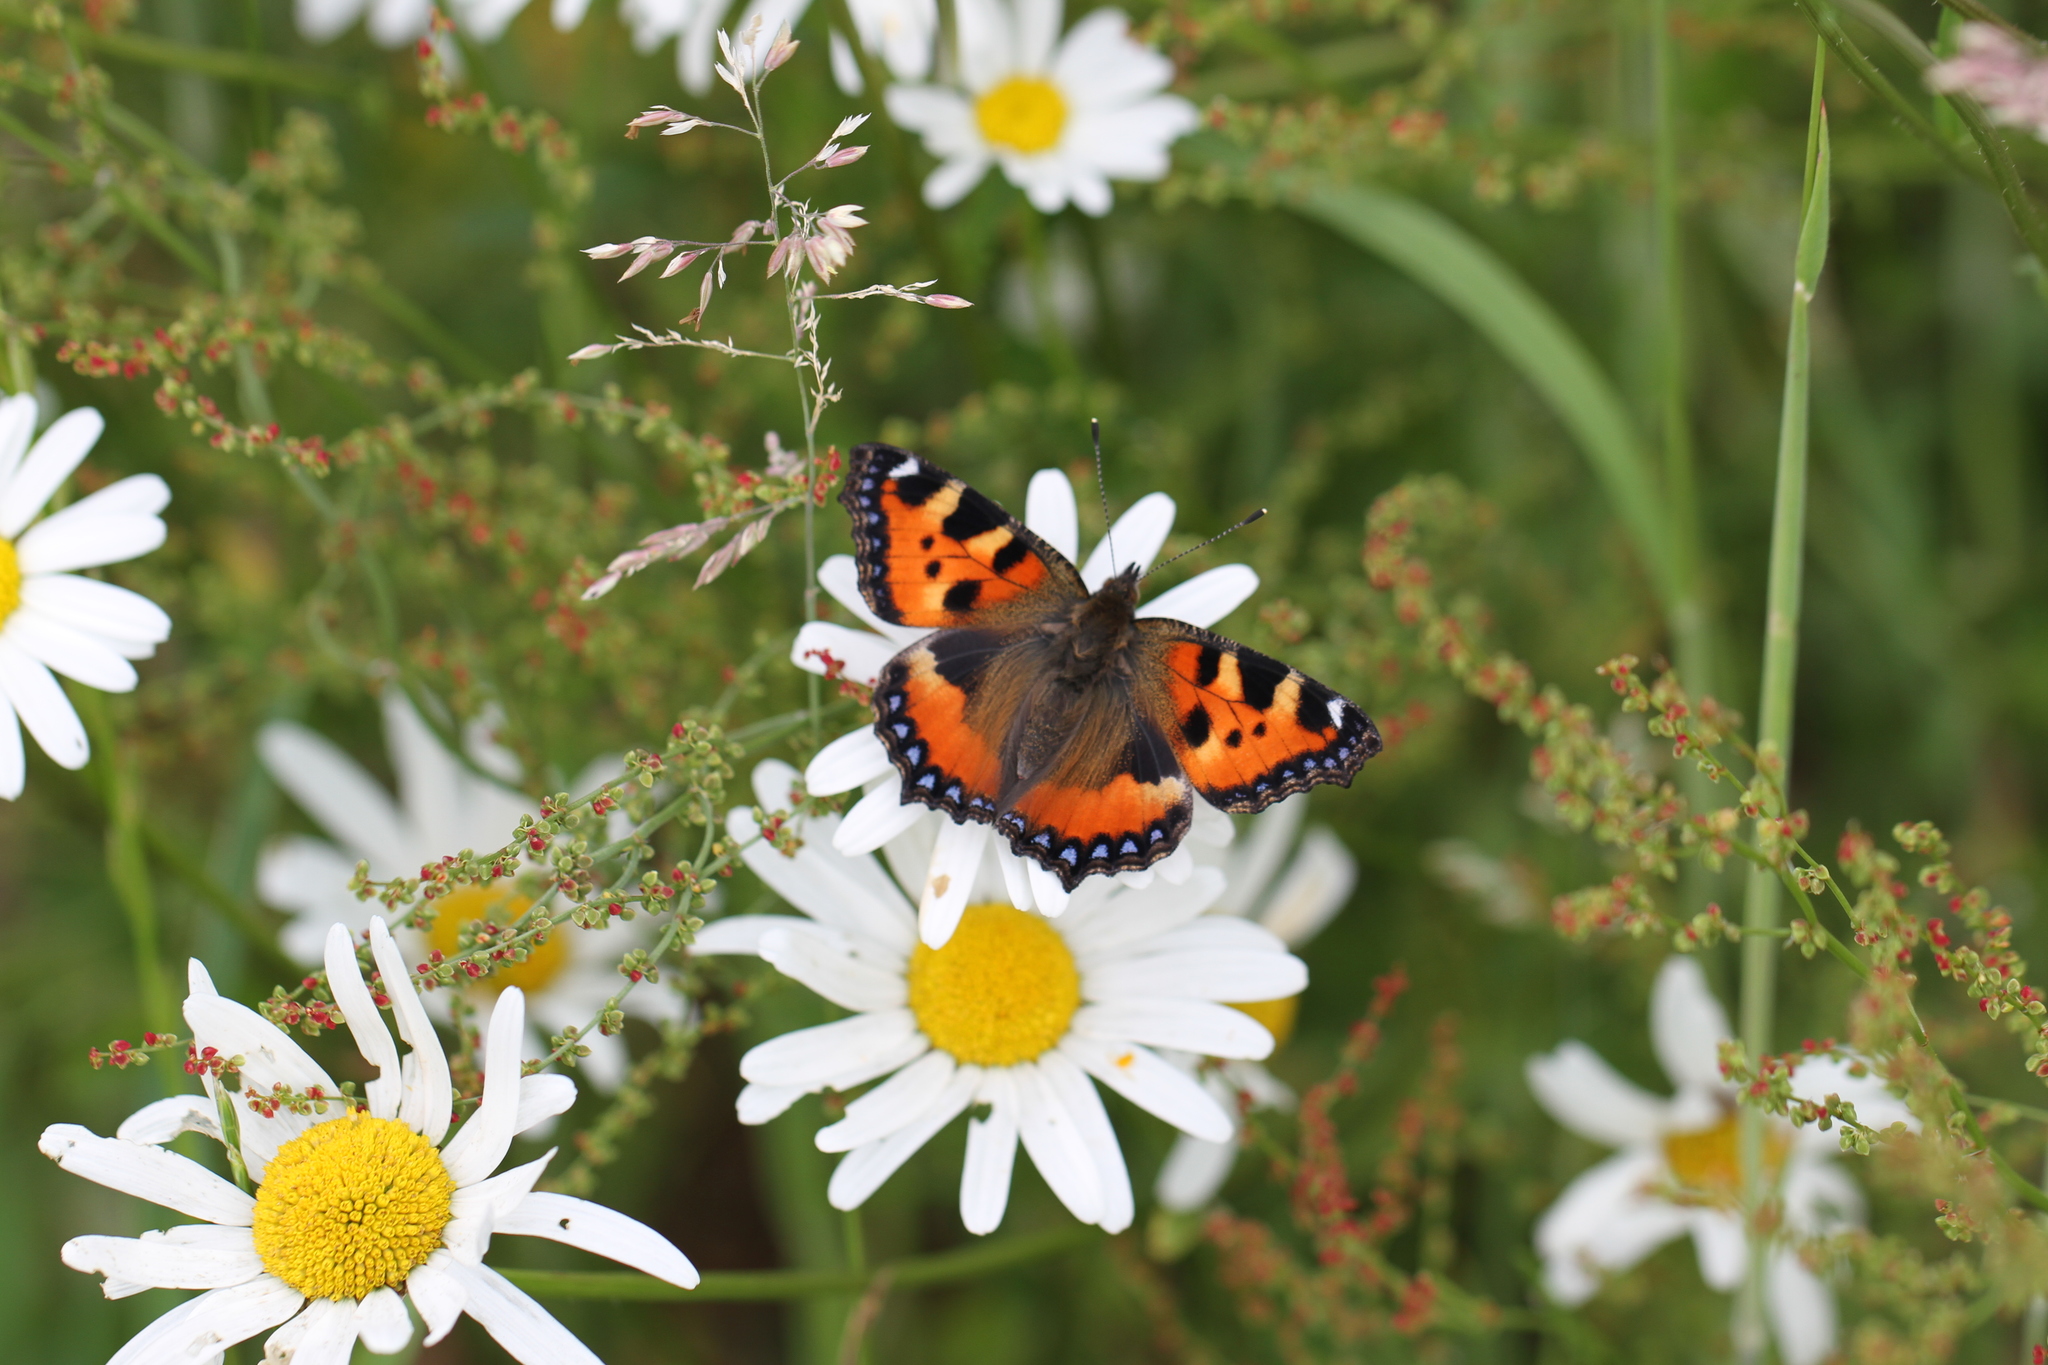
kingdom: Animalia
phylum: Arthropoda
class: Insecta
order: Lepidoptera
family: Nymphalidae
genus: Aglais
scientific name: Aglais urticae
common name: Small tortoiseshell
